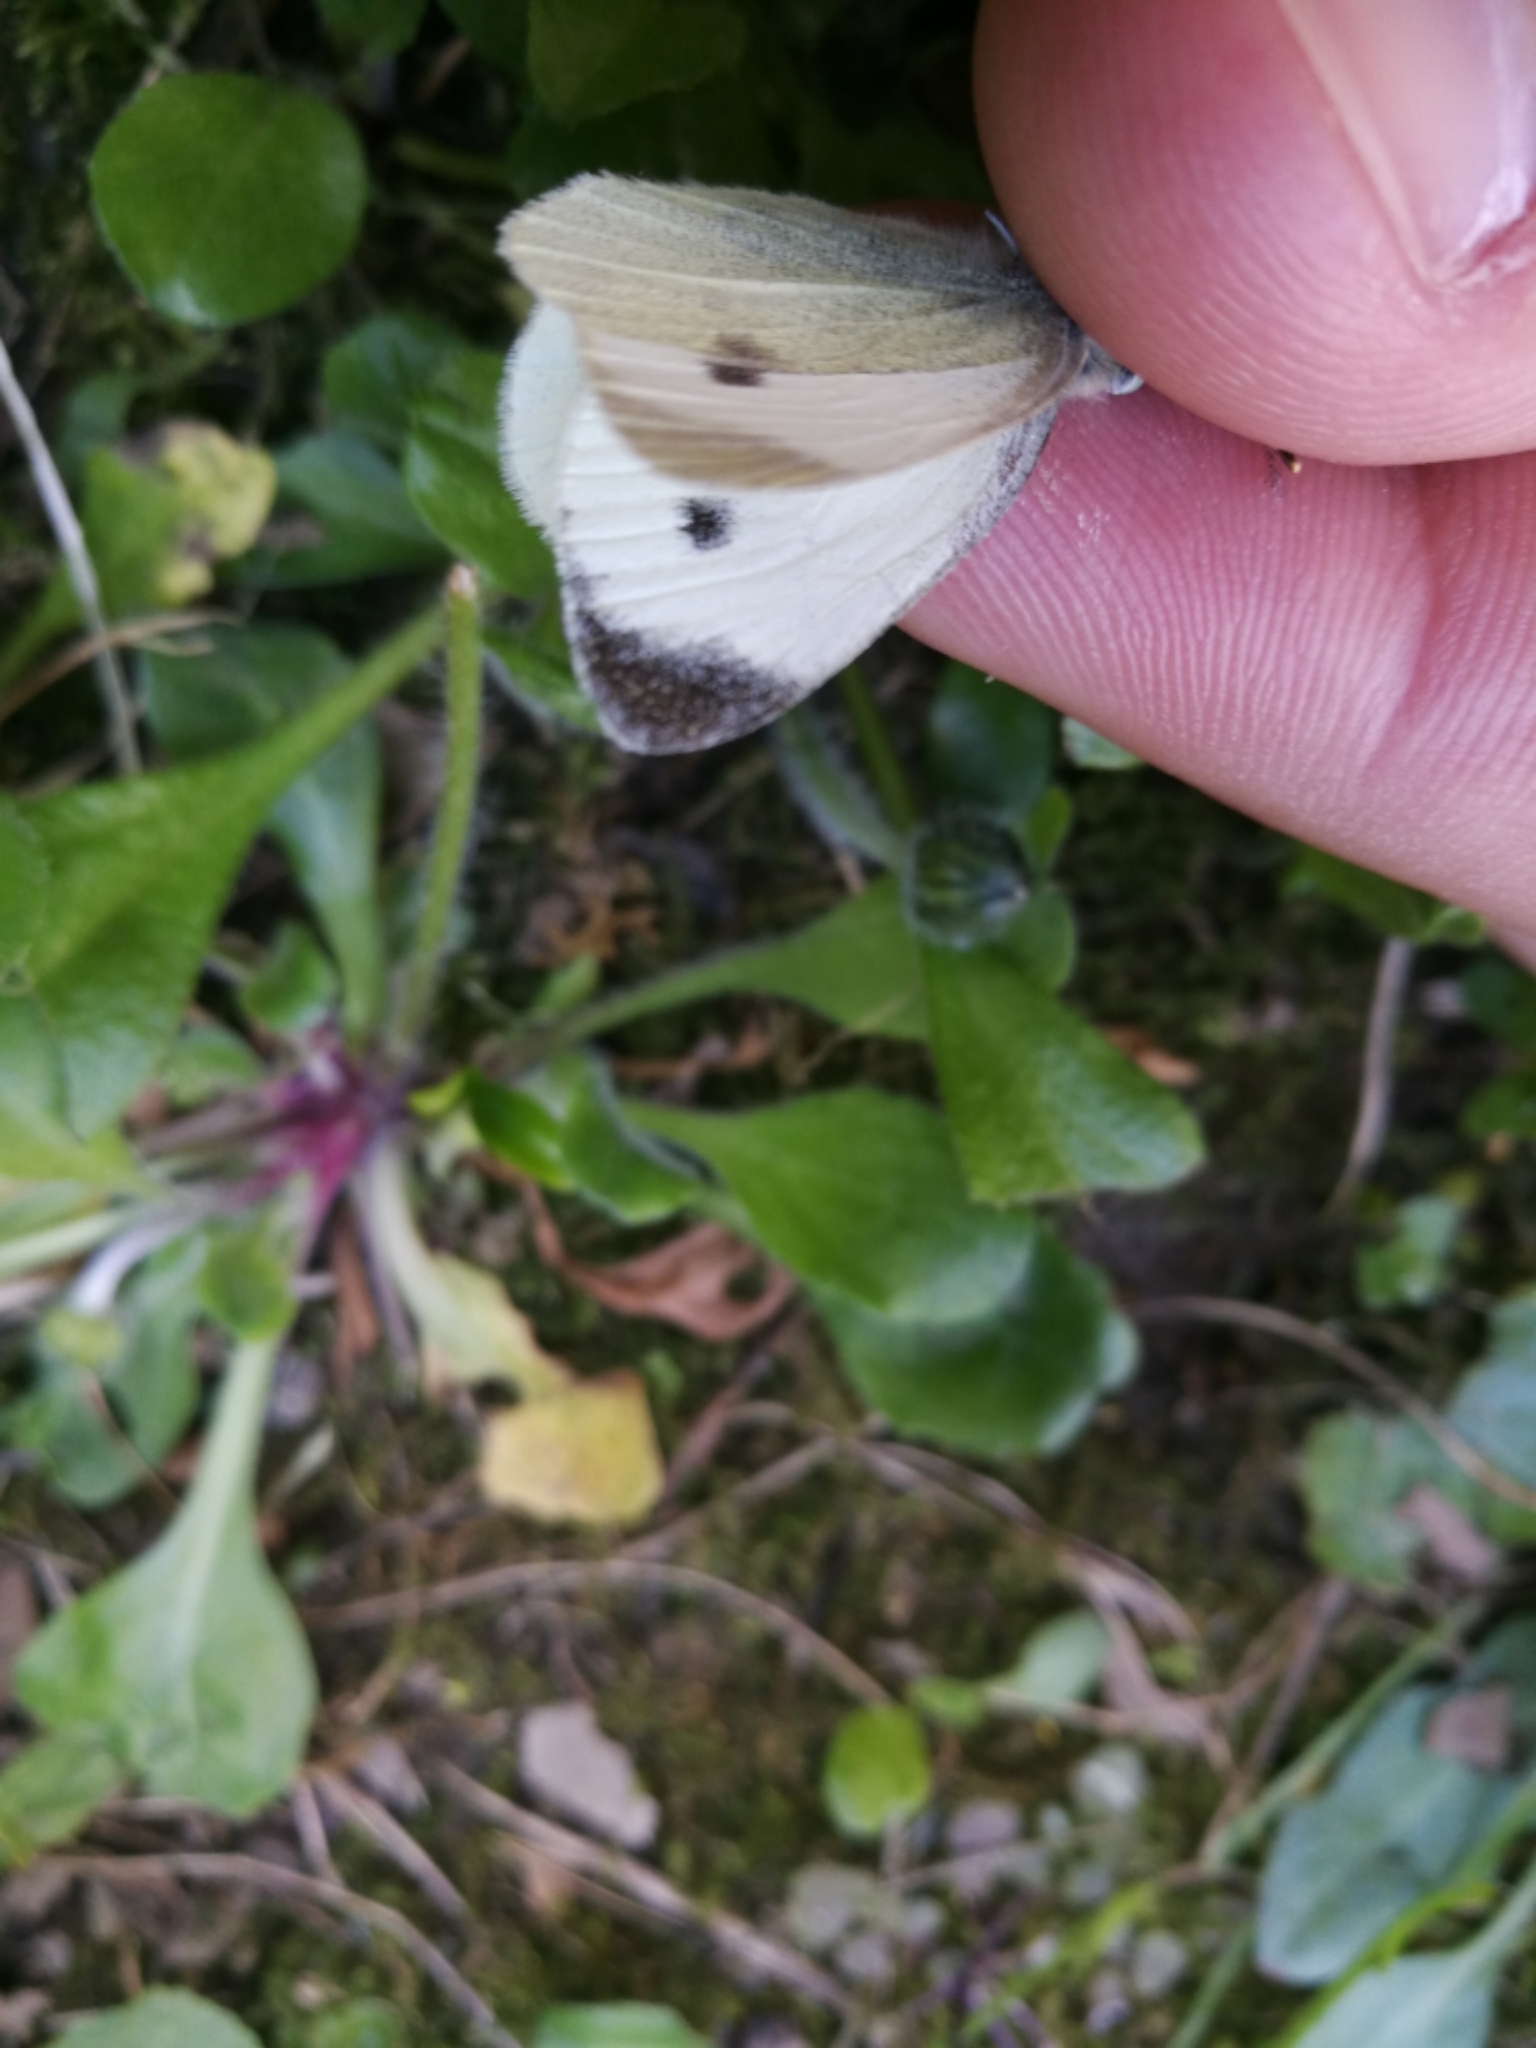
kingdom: Animalia
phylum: Arthropoda
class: Insecta
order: Lepidoptera
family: Pieridae
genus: Pieris
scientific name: Pieris rapae
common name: Small white
